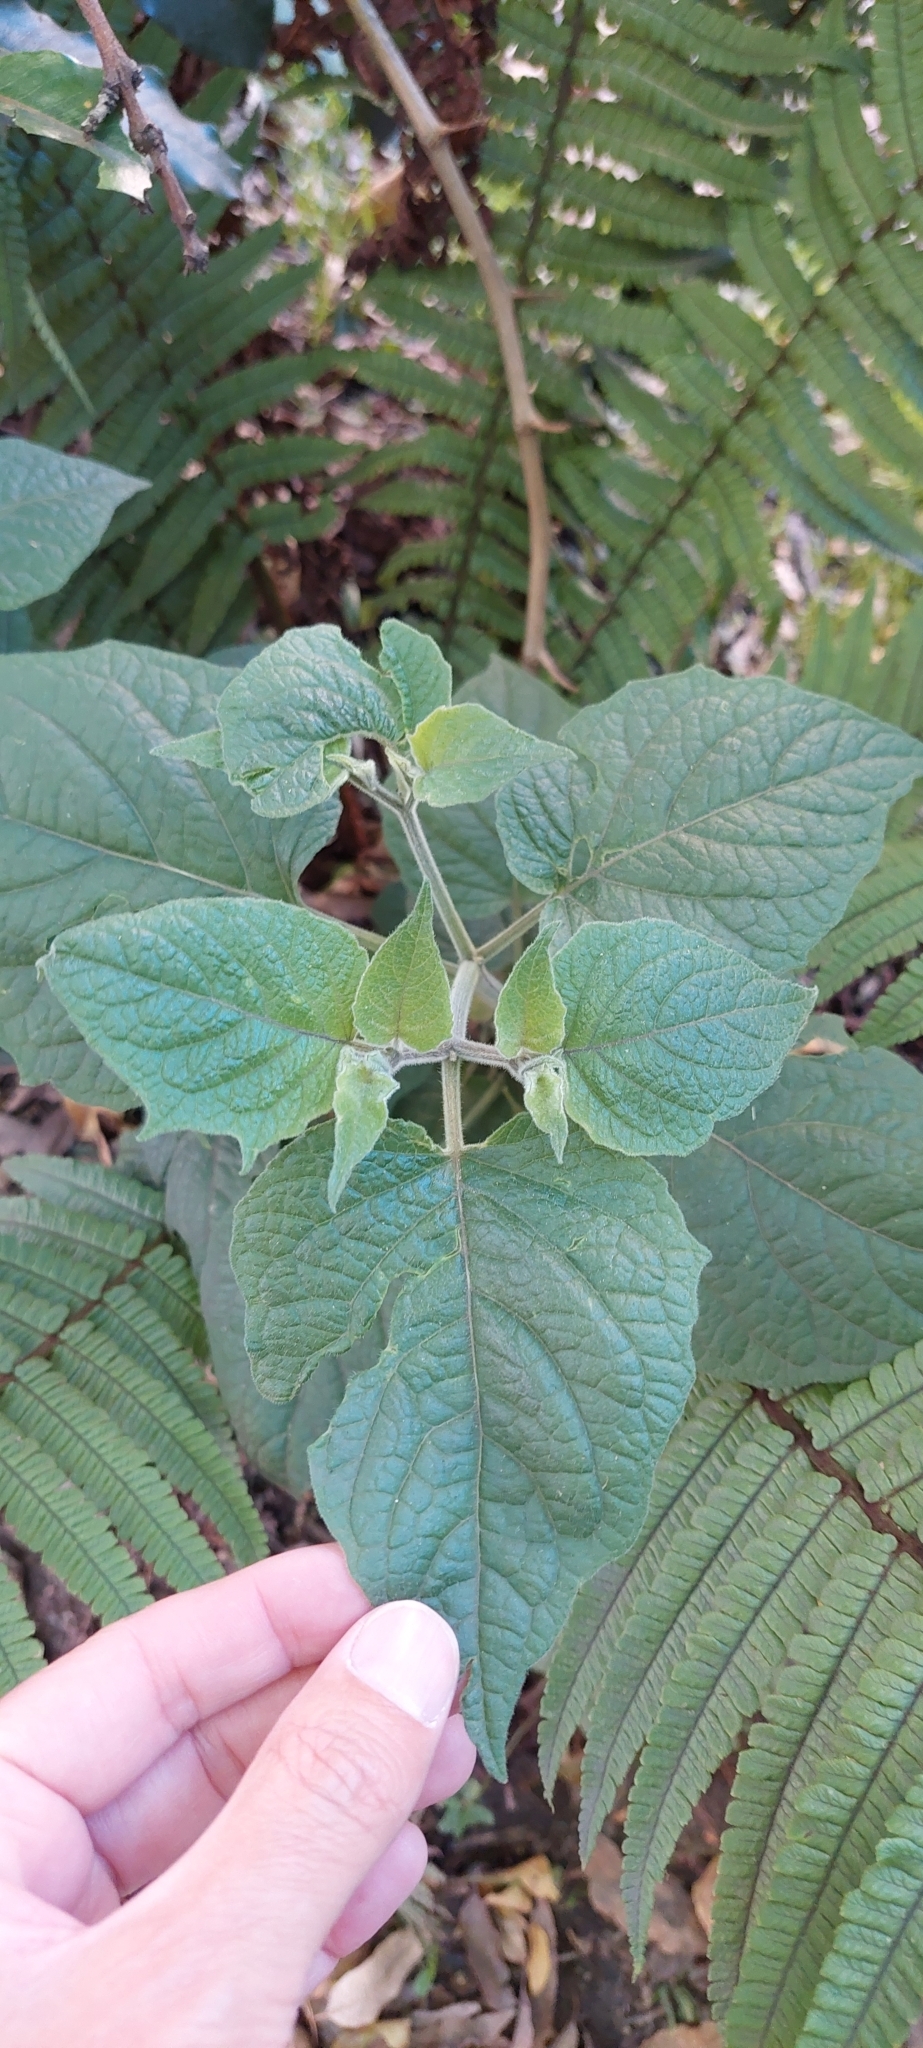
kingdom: Plantae
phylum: Tracheophyta
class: Magnoliopsida
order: Solanales
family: Solanaceae
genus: Physalis
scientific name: Physalis peruviana
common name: Cape-gooseberry
